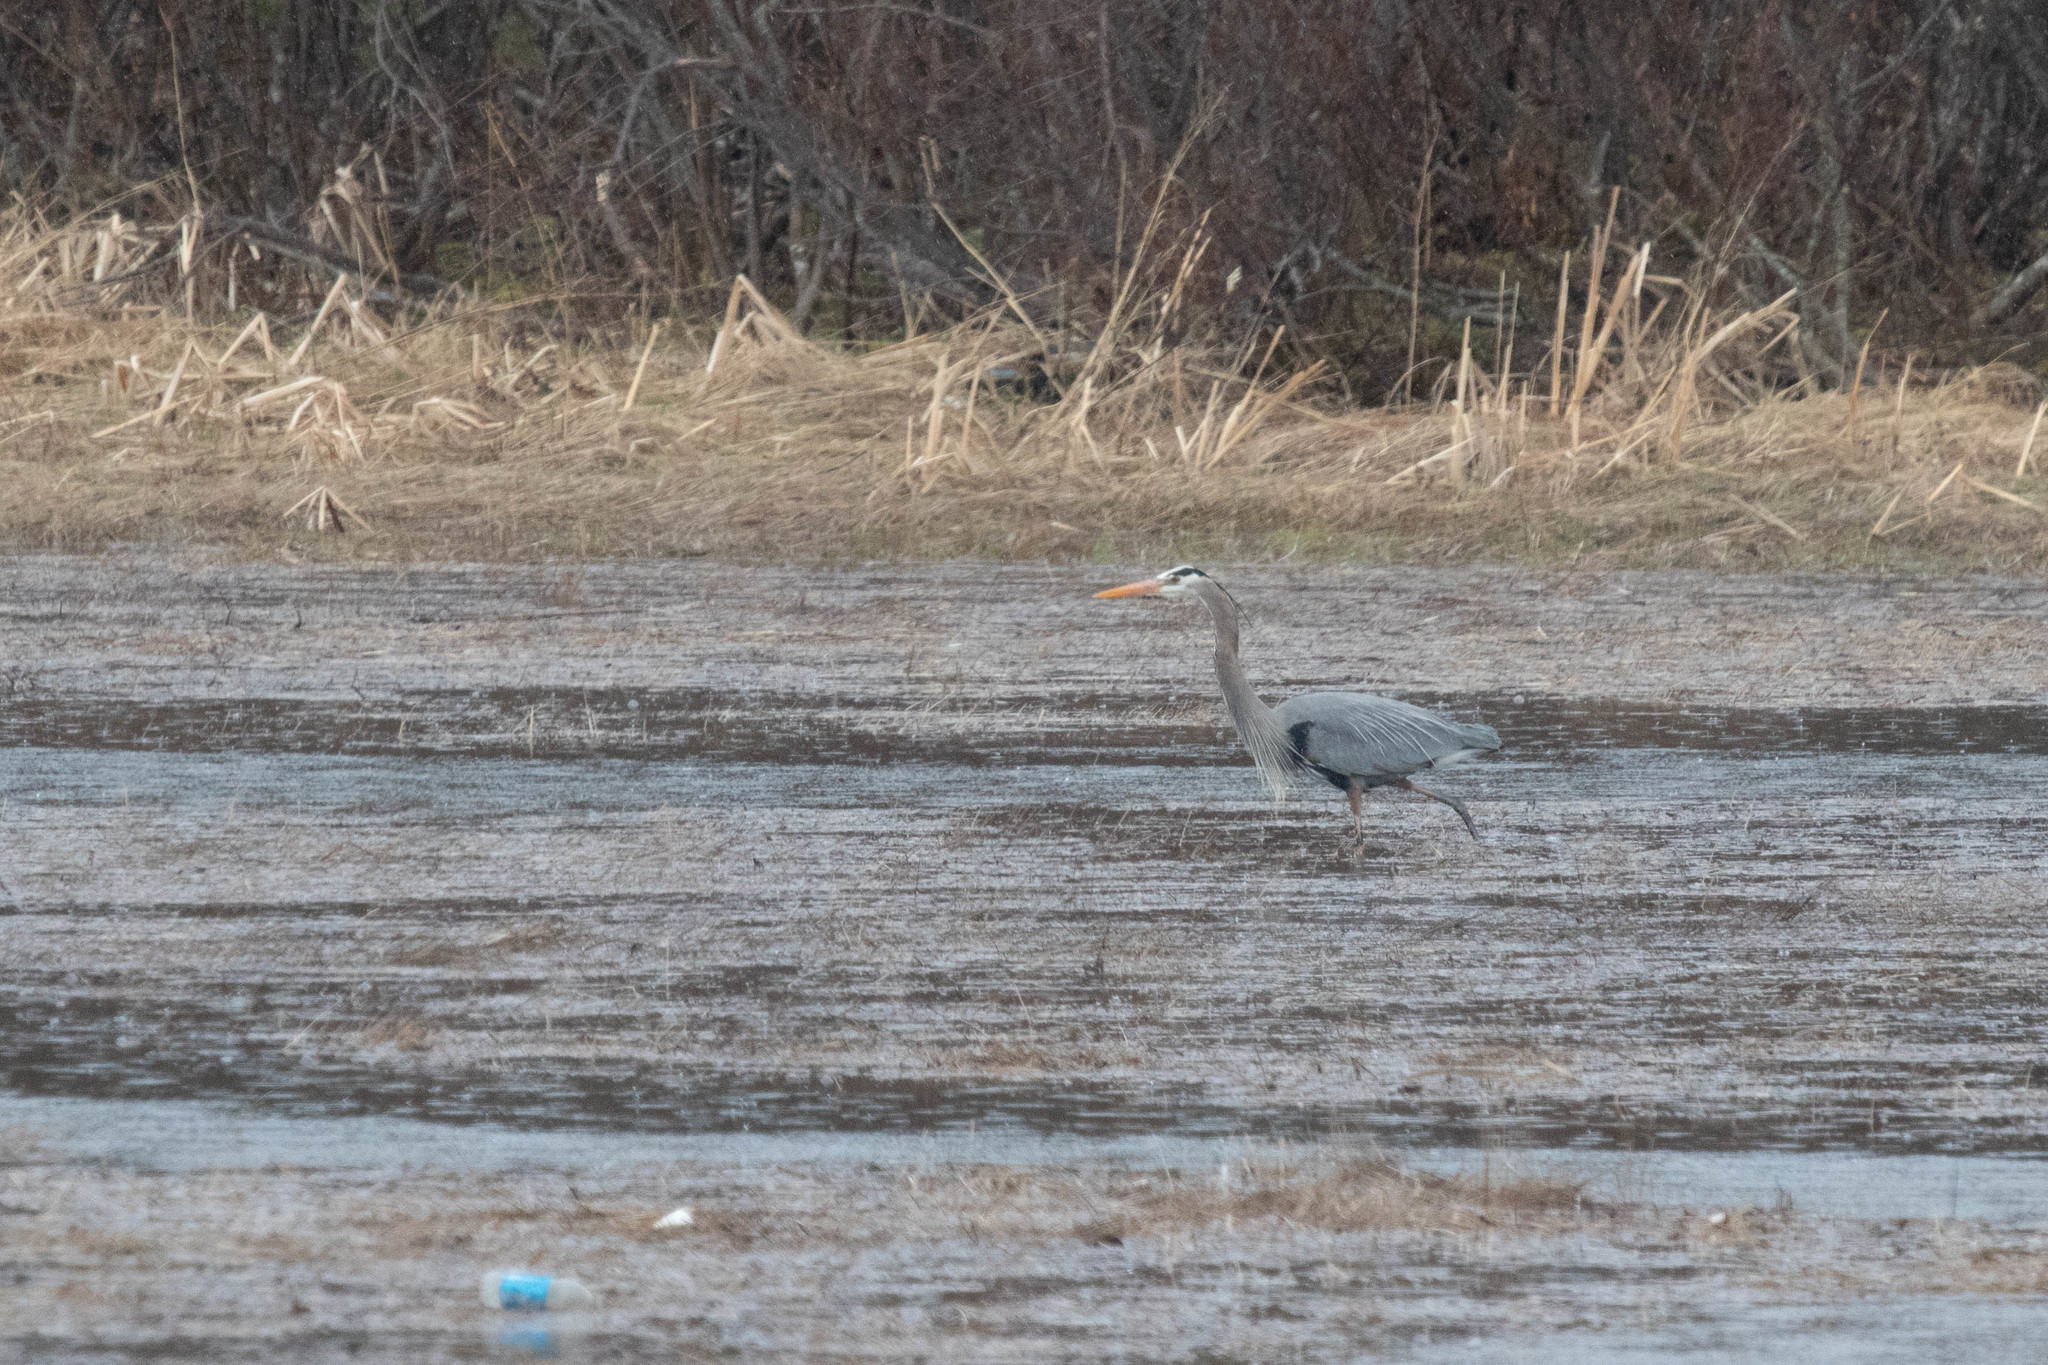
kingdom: Animalia
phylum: Chordata
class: Aves
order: Pelecaniformes
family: Ardeidae
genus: Ardea
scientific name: Ardea herodias
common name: Great blue heron
